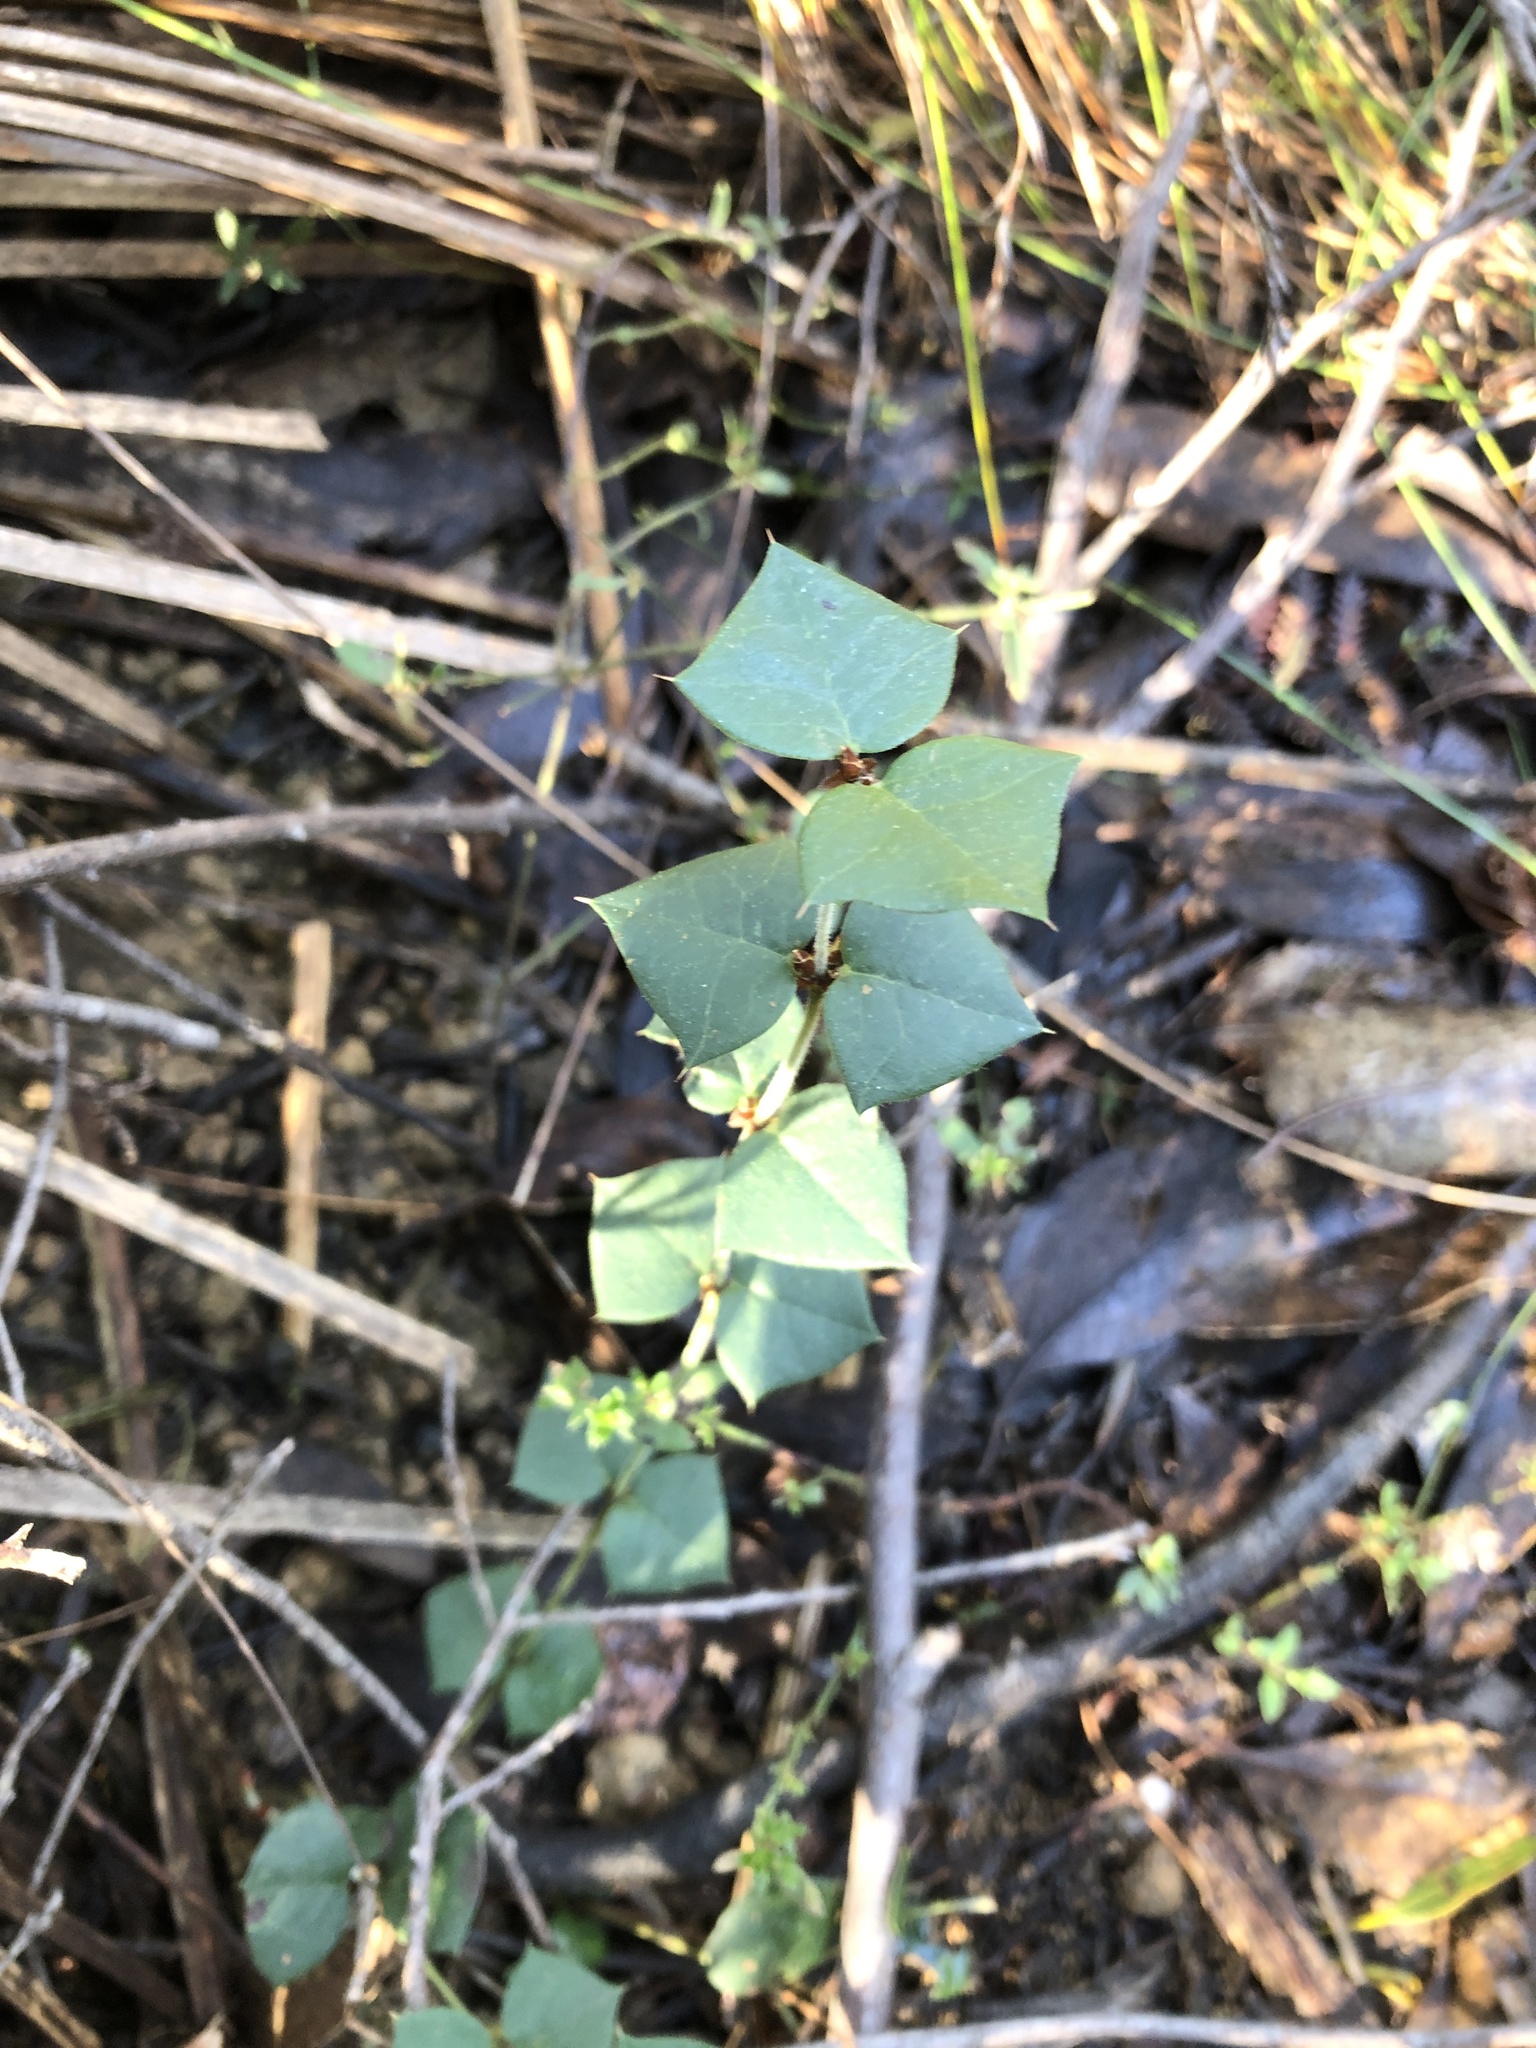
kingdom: Plantae
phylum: Tracheophyta
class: Magnoliopsida
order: Fabales
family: Fabaceae
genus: Platylobium
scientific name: Platylobium obtusangulum
